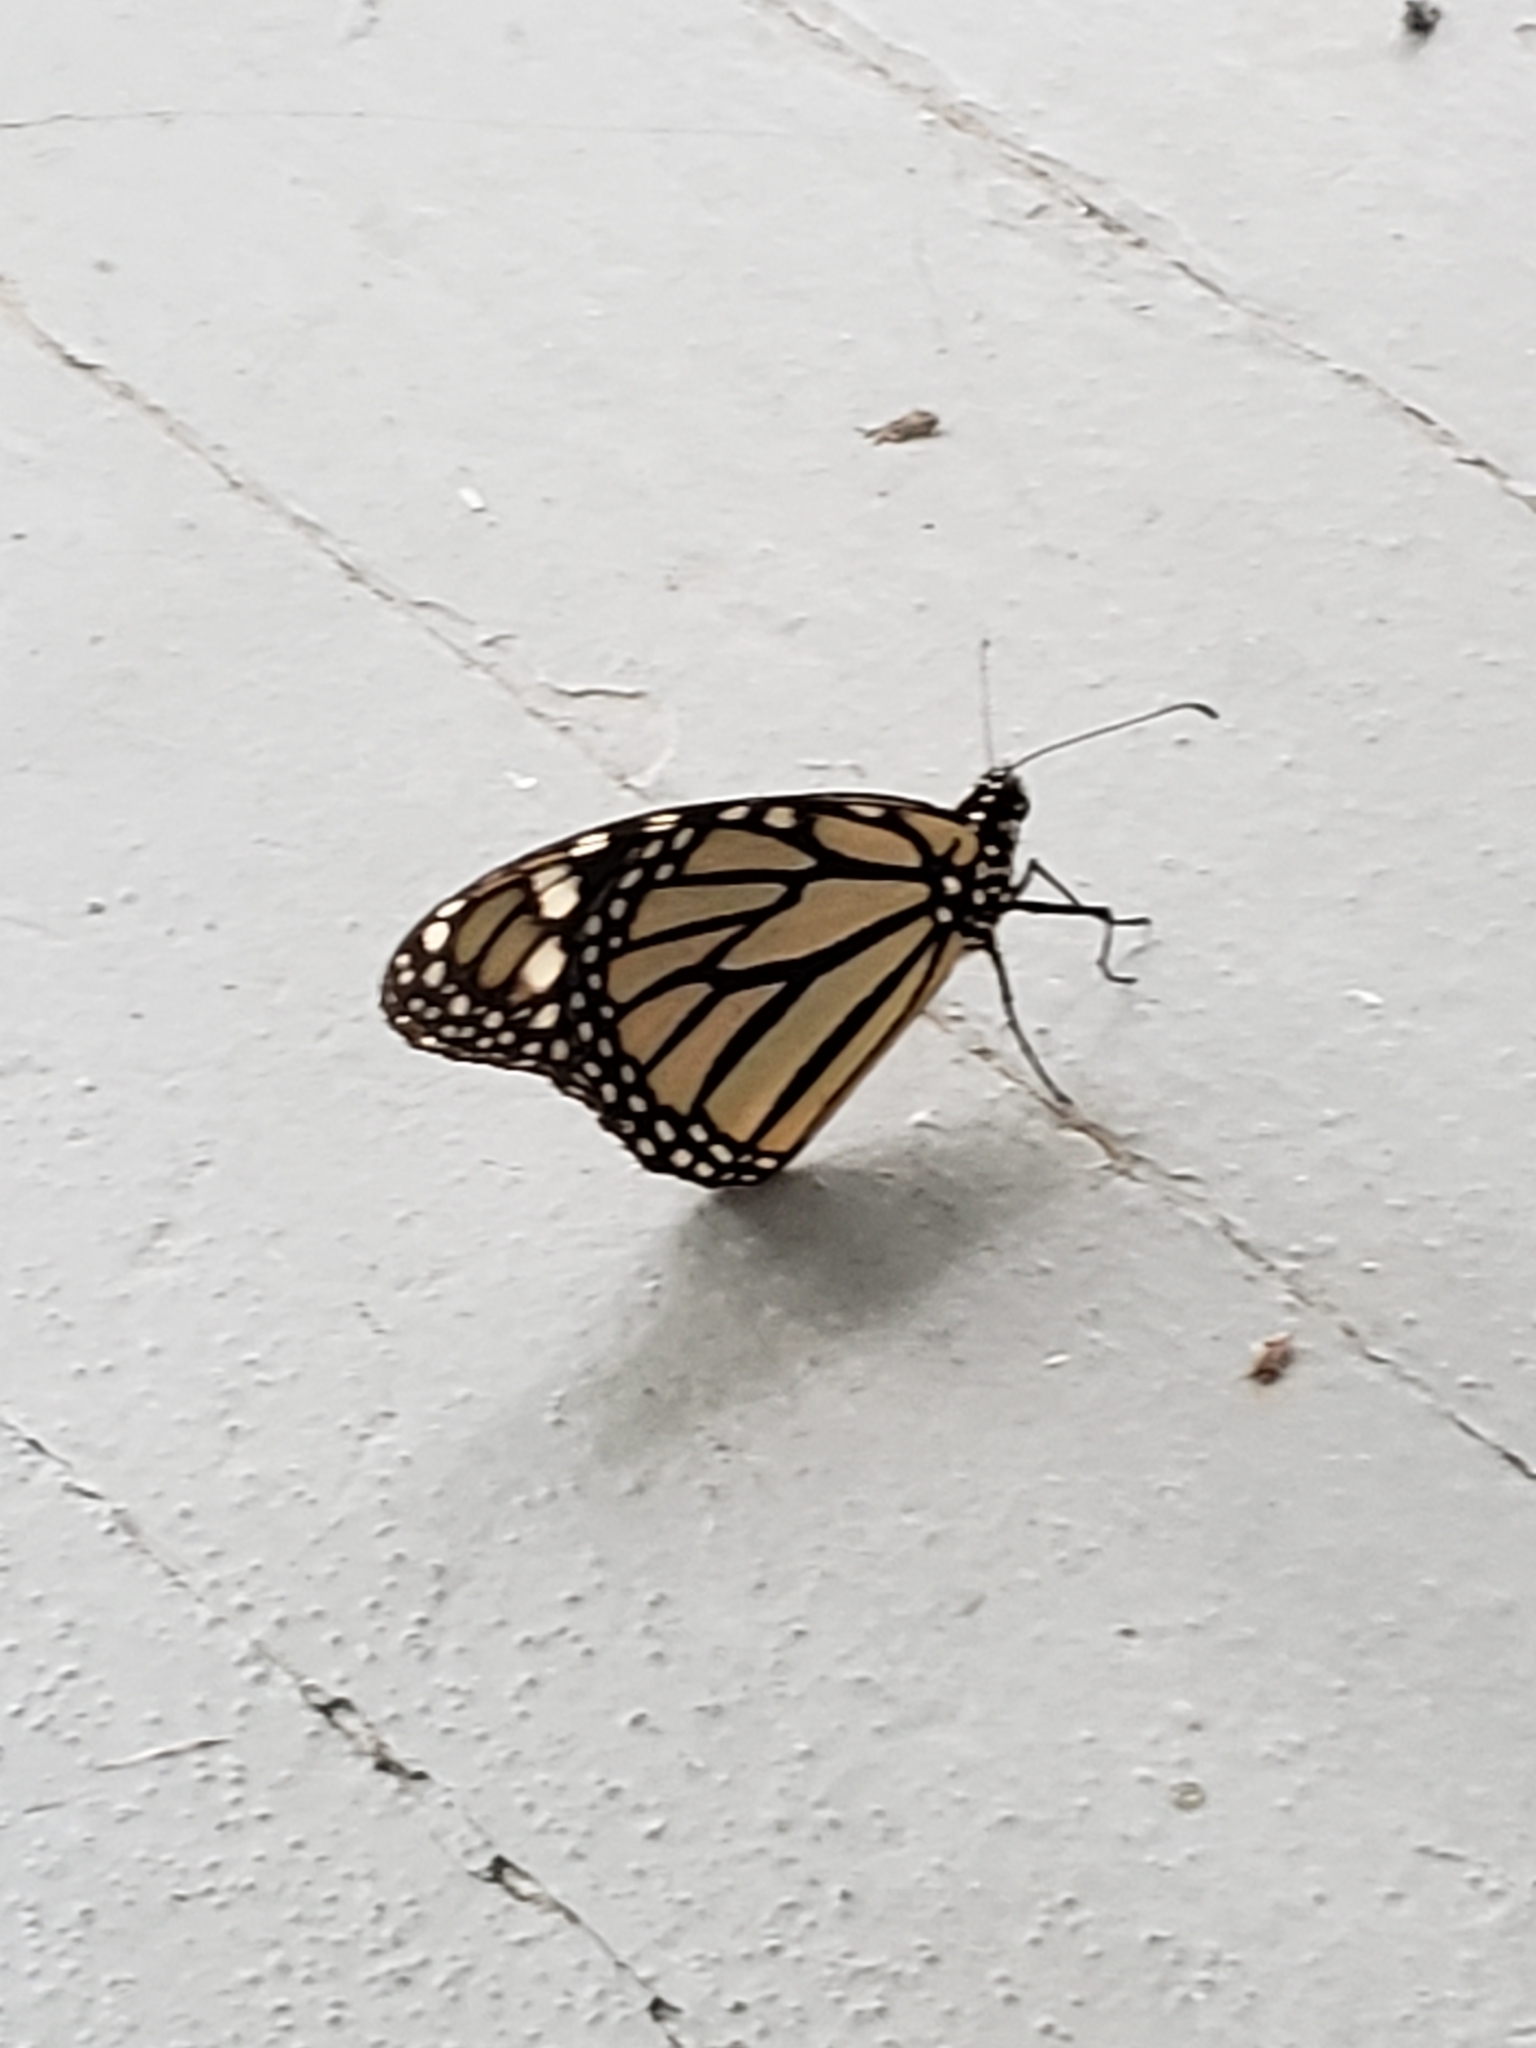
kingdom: Animalia
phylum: Arthropoda
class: Insecta
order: Lepidoptera
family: Nymphalidae
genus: Danaus
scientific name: Danaus plexippus
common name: Monarch
